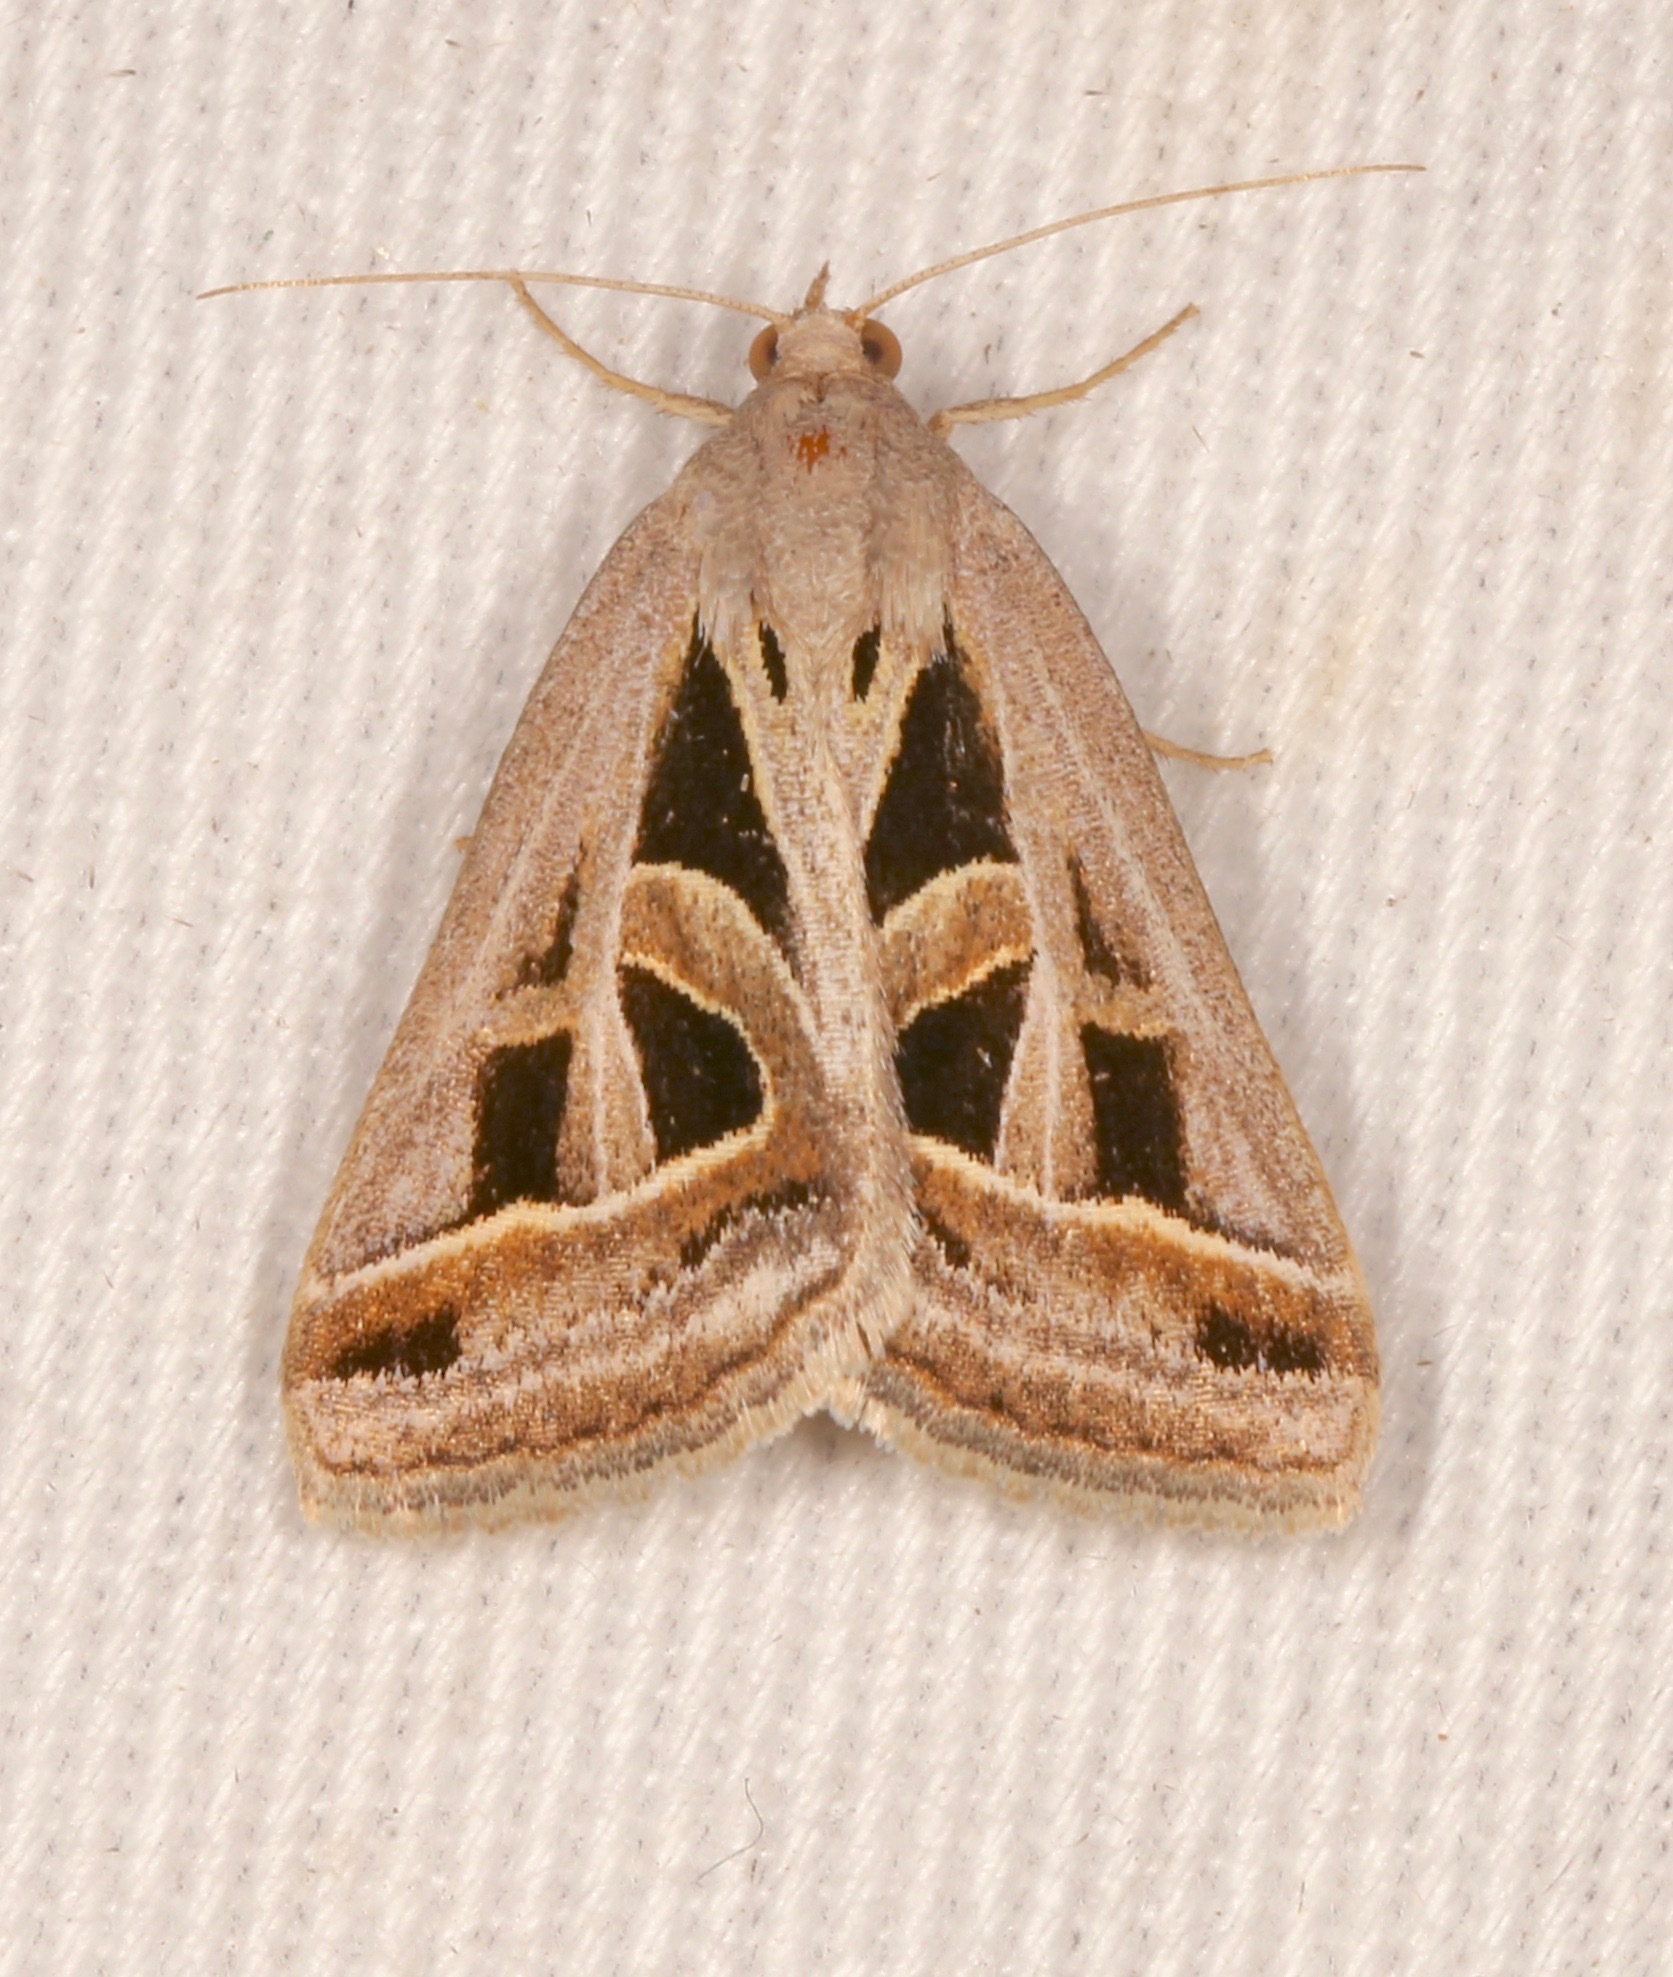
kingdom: Animalia
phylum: Arthropoda
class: Insecta
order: Lepidoptera
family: Erebidae
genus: Callistege
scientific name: Callistege diagonalis
